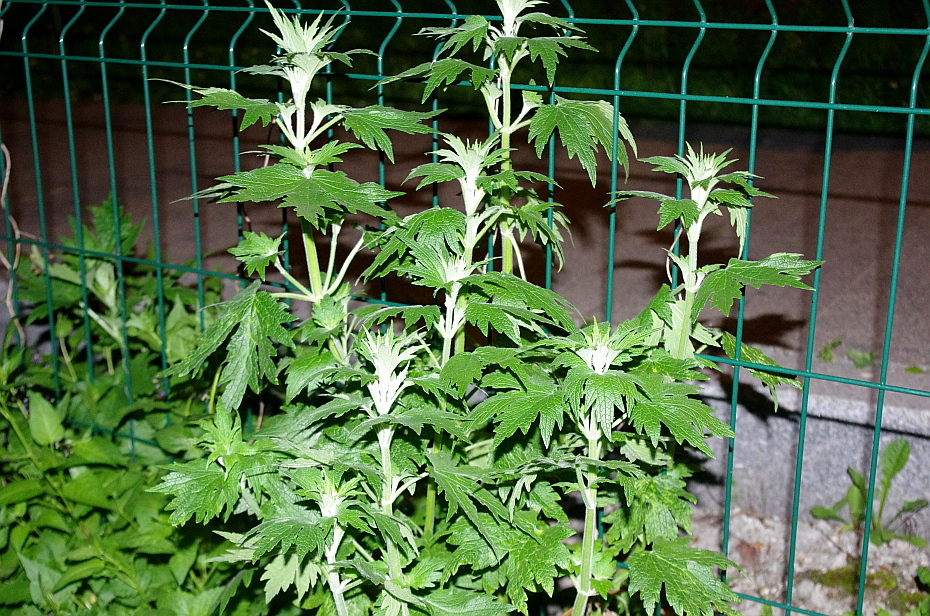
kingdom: Plantae
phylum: Tracheophyta
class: Magnoliopsida
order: Lamiales
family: Lamiaceae
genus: Leonurus
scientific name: Leonurus quinquelobatus
